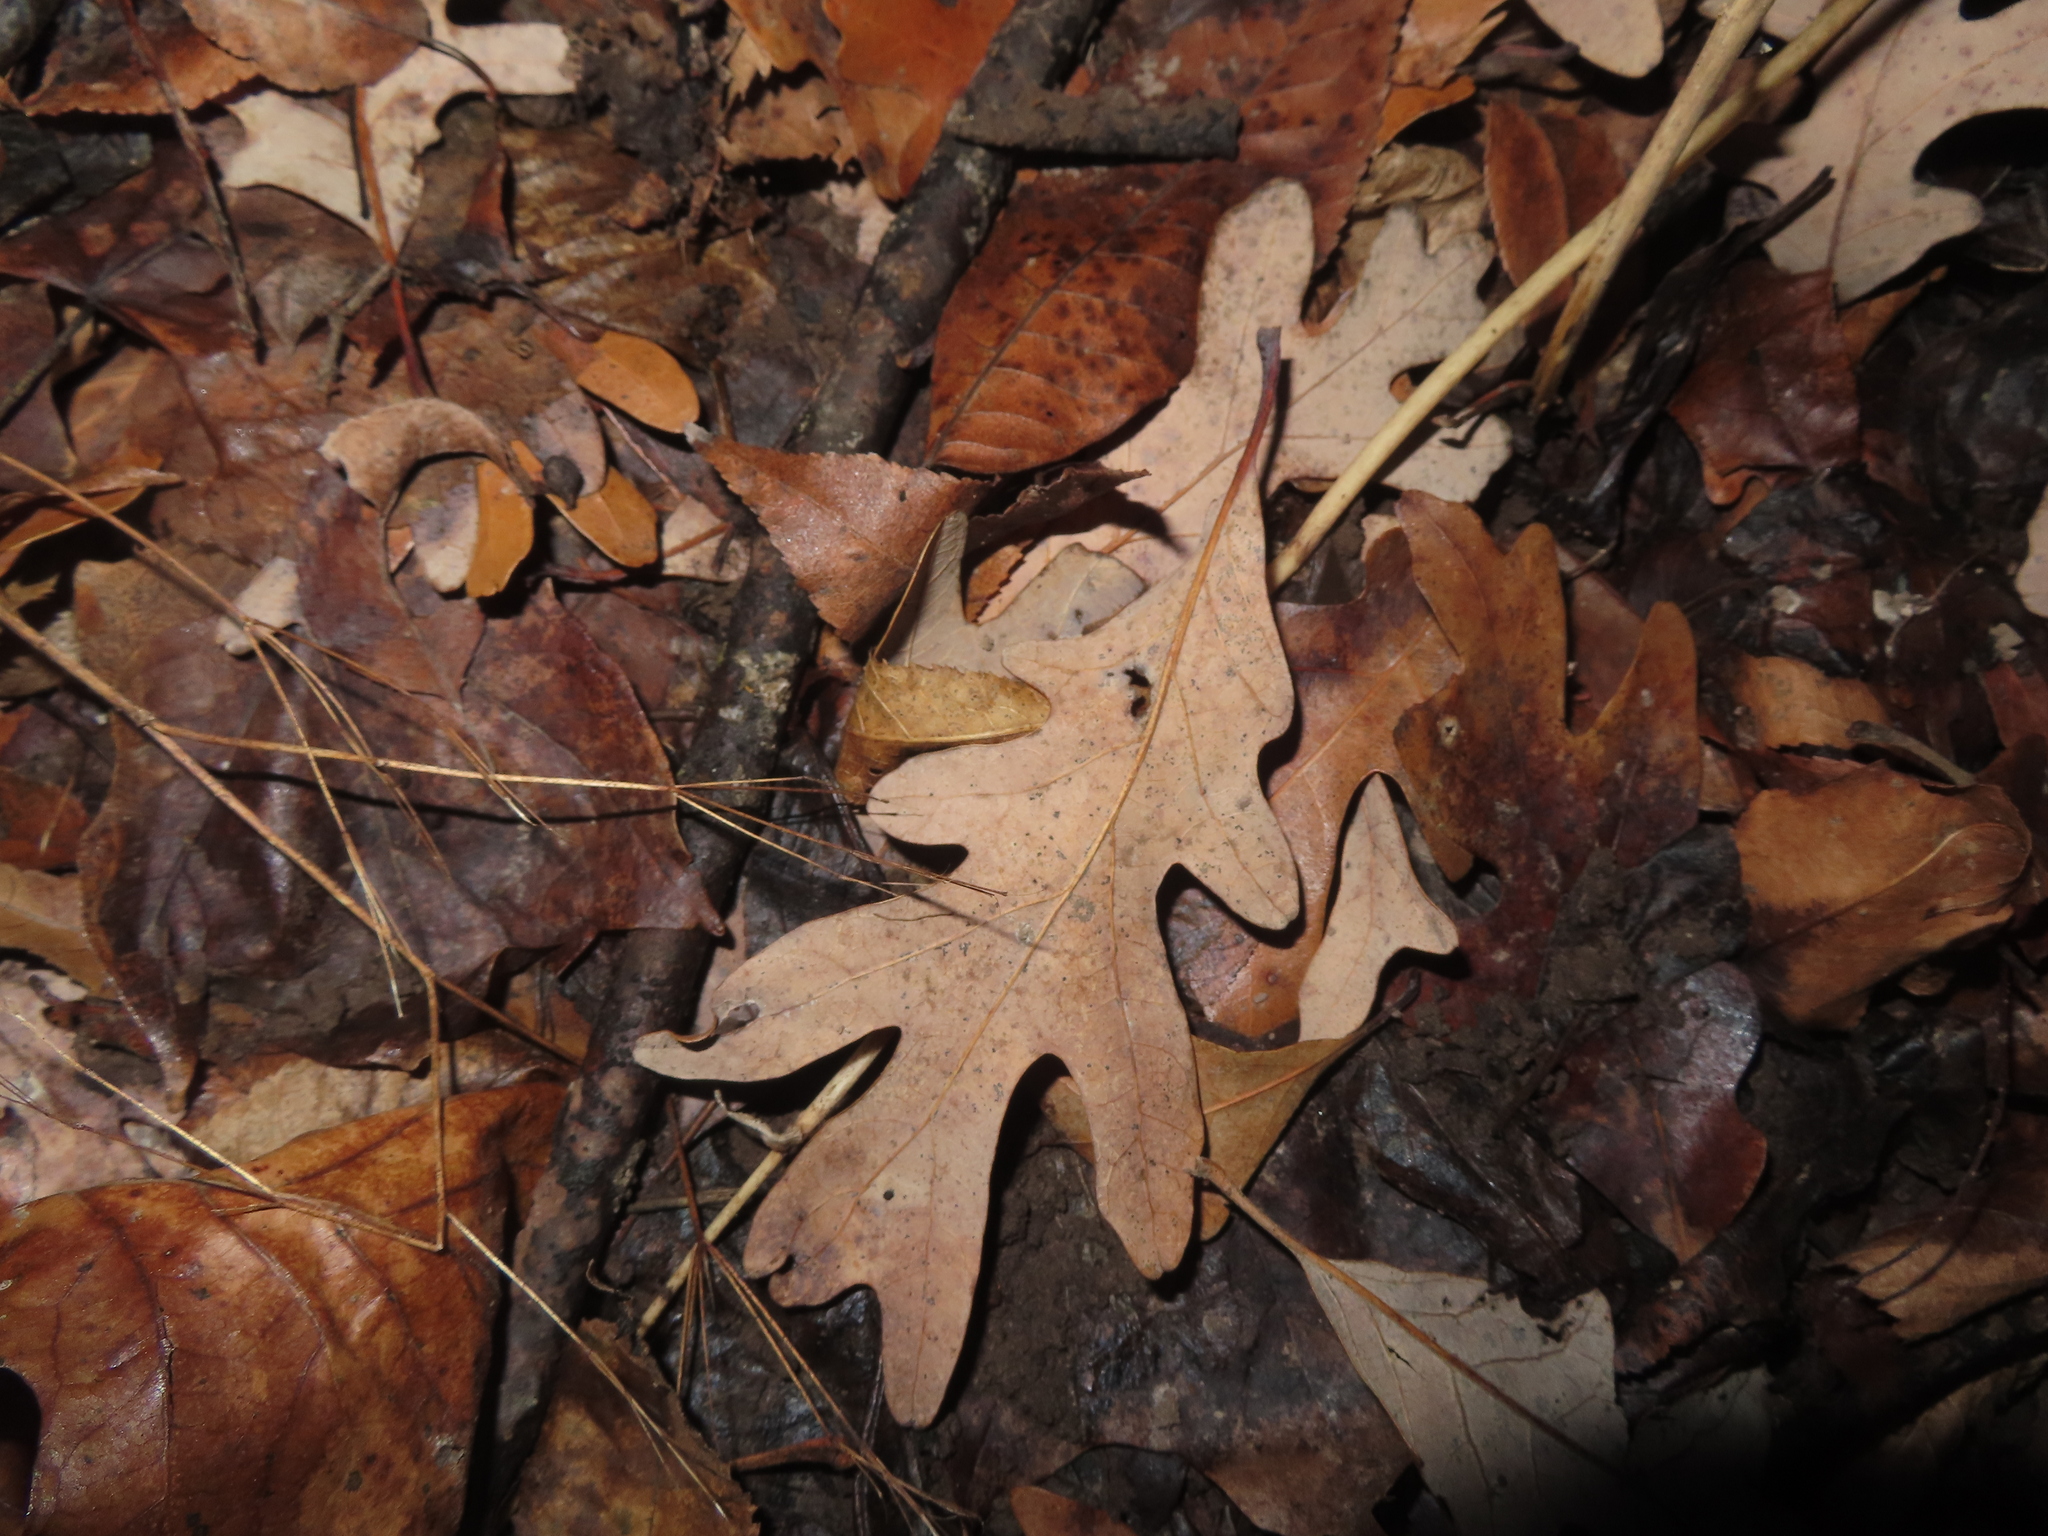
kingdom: Plantae
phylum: Tracheophyta
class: Magnoliopsida
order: Fagales
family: Fagaceae
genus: Quercus
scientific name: Quercus alba
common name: White oak
